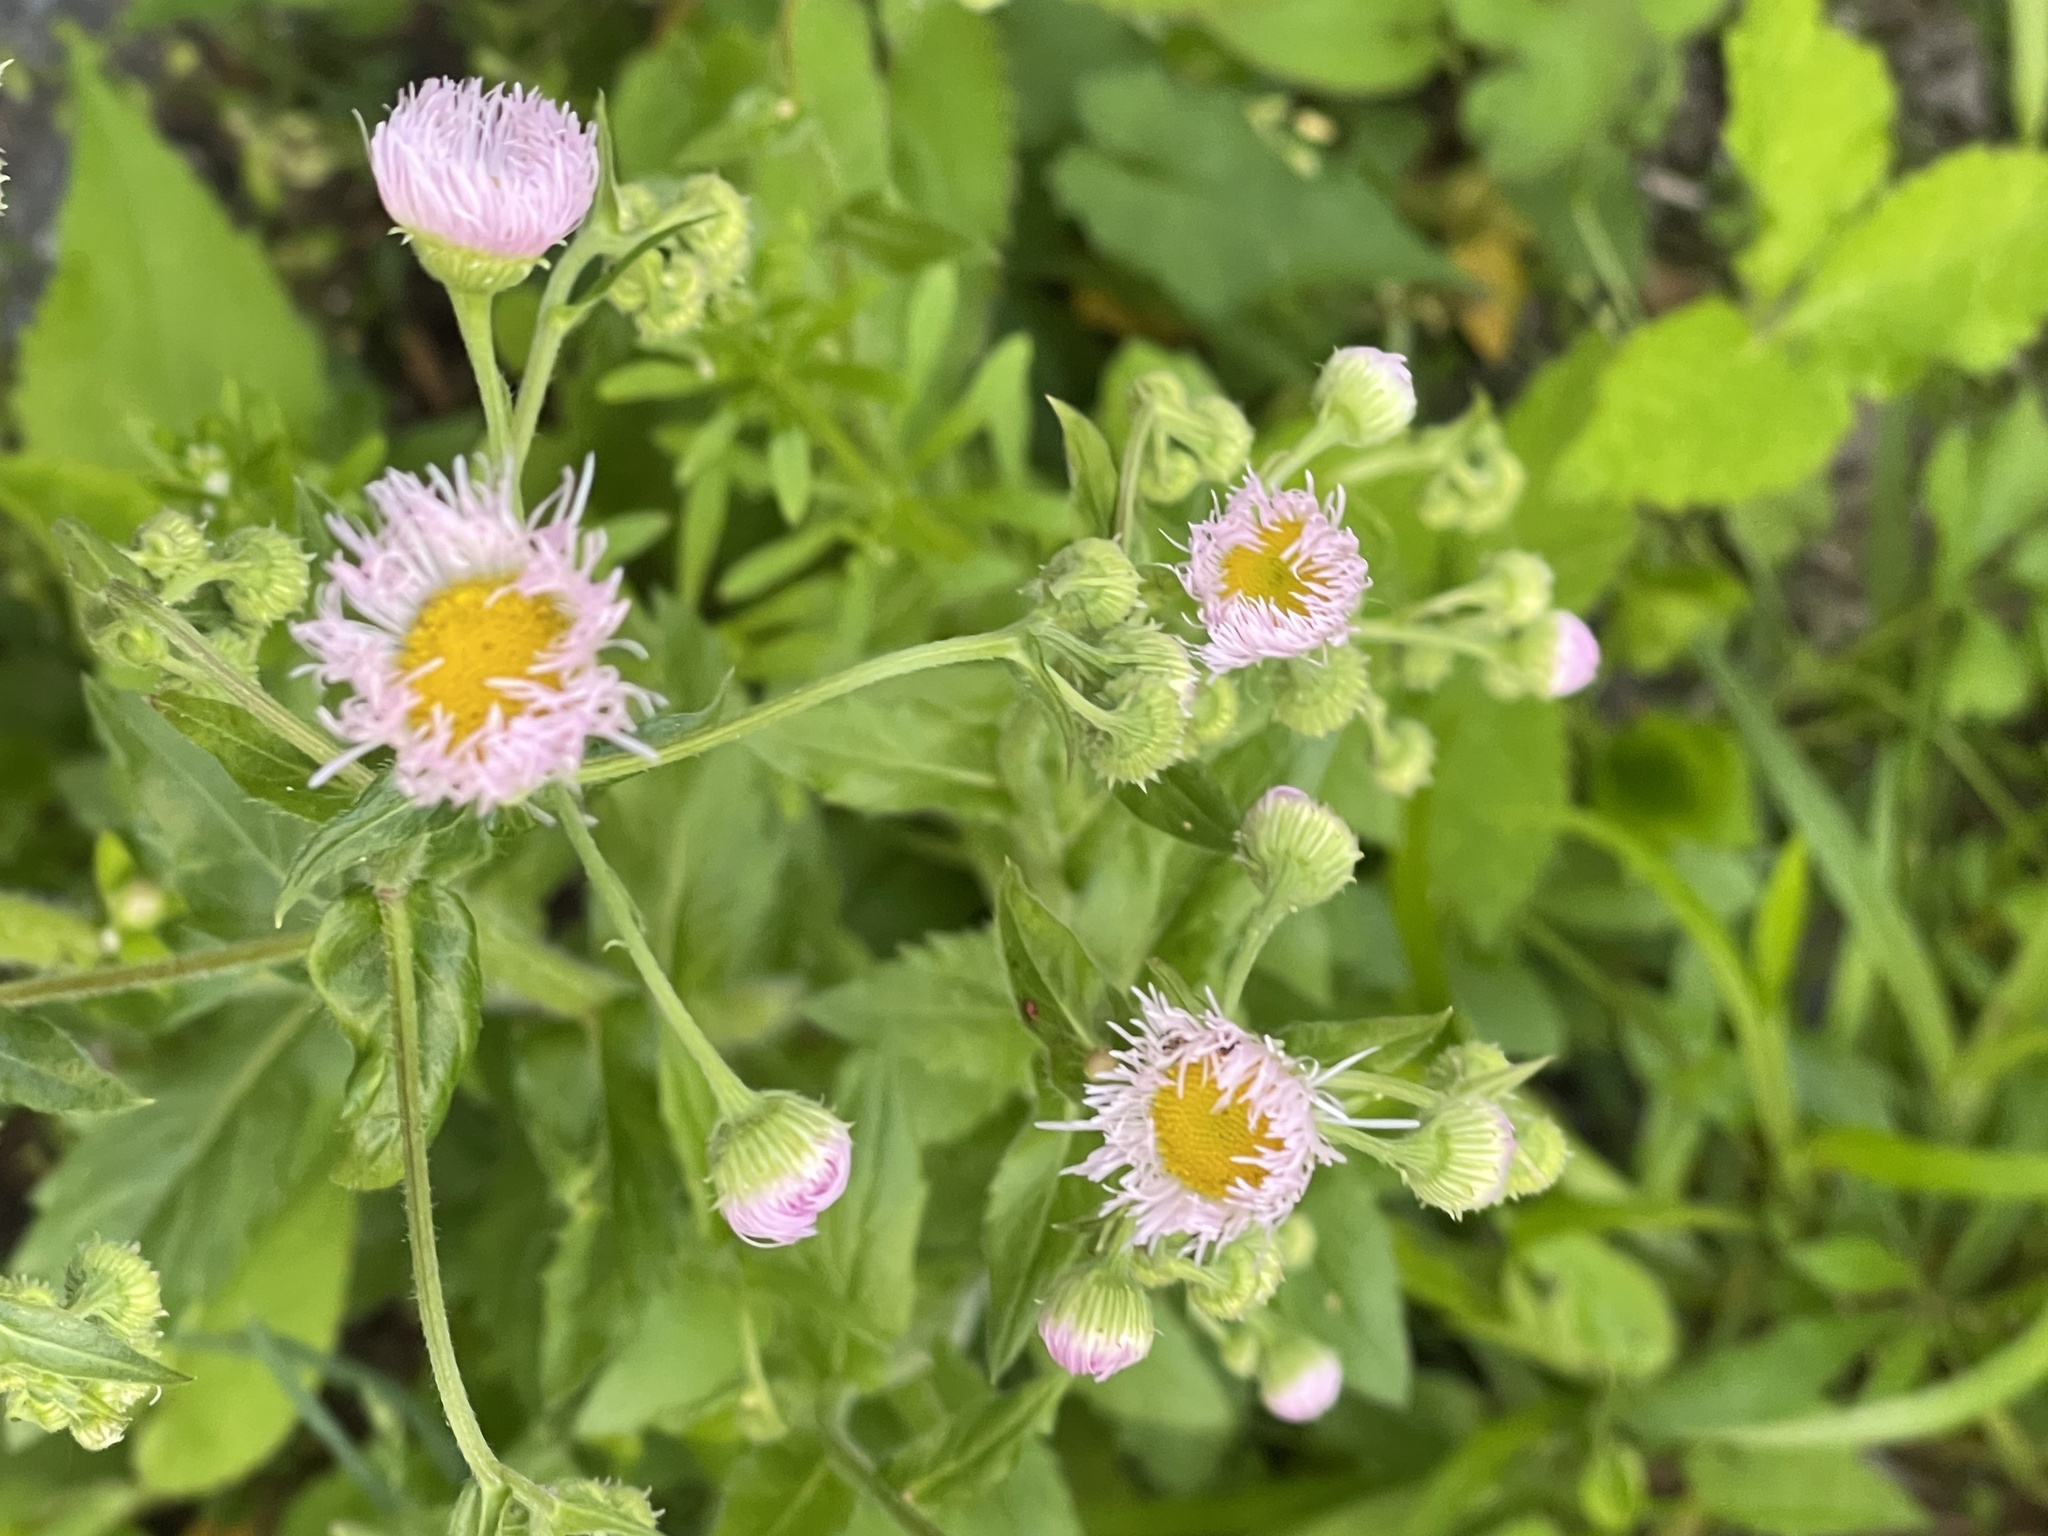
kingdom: Plantae
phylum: Tracheophyta
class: Magnoliopsida
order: Asterales
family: Asteraceae
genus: Erigeron
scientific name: Erigeron philadelphicus
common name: Robin's-plantain
